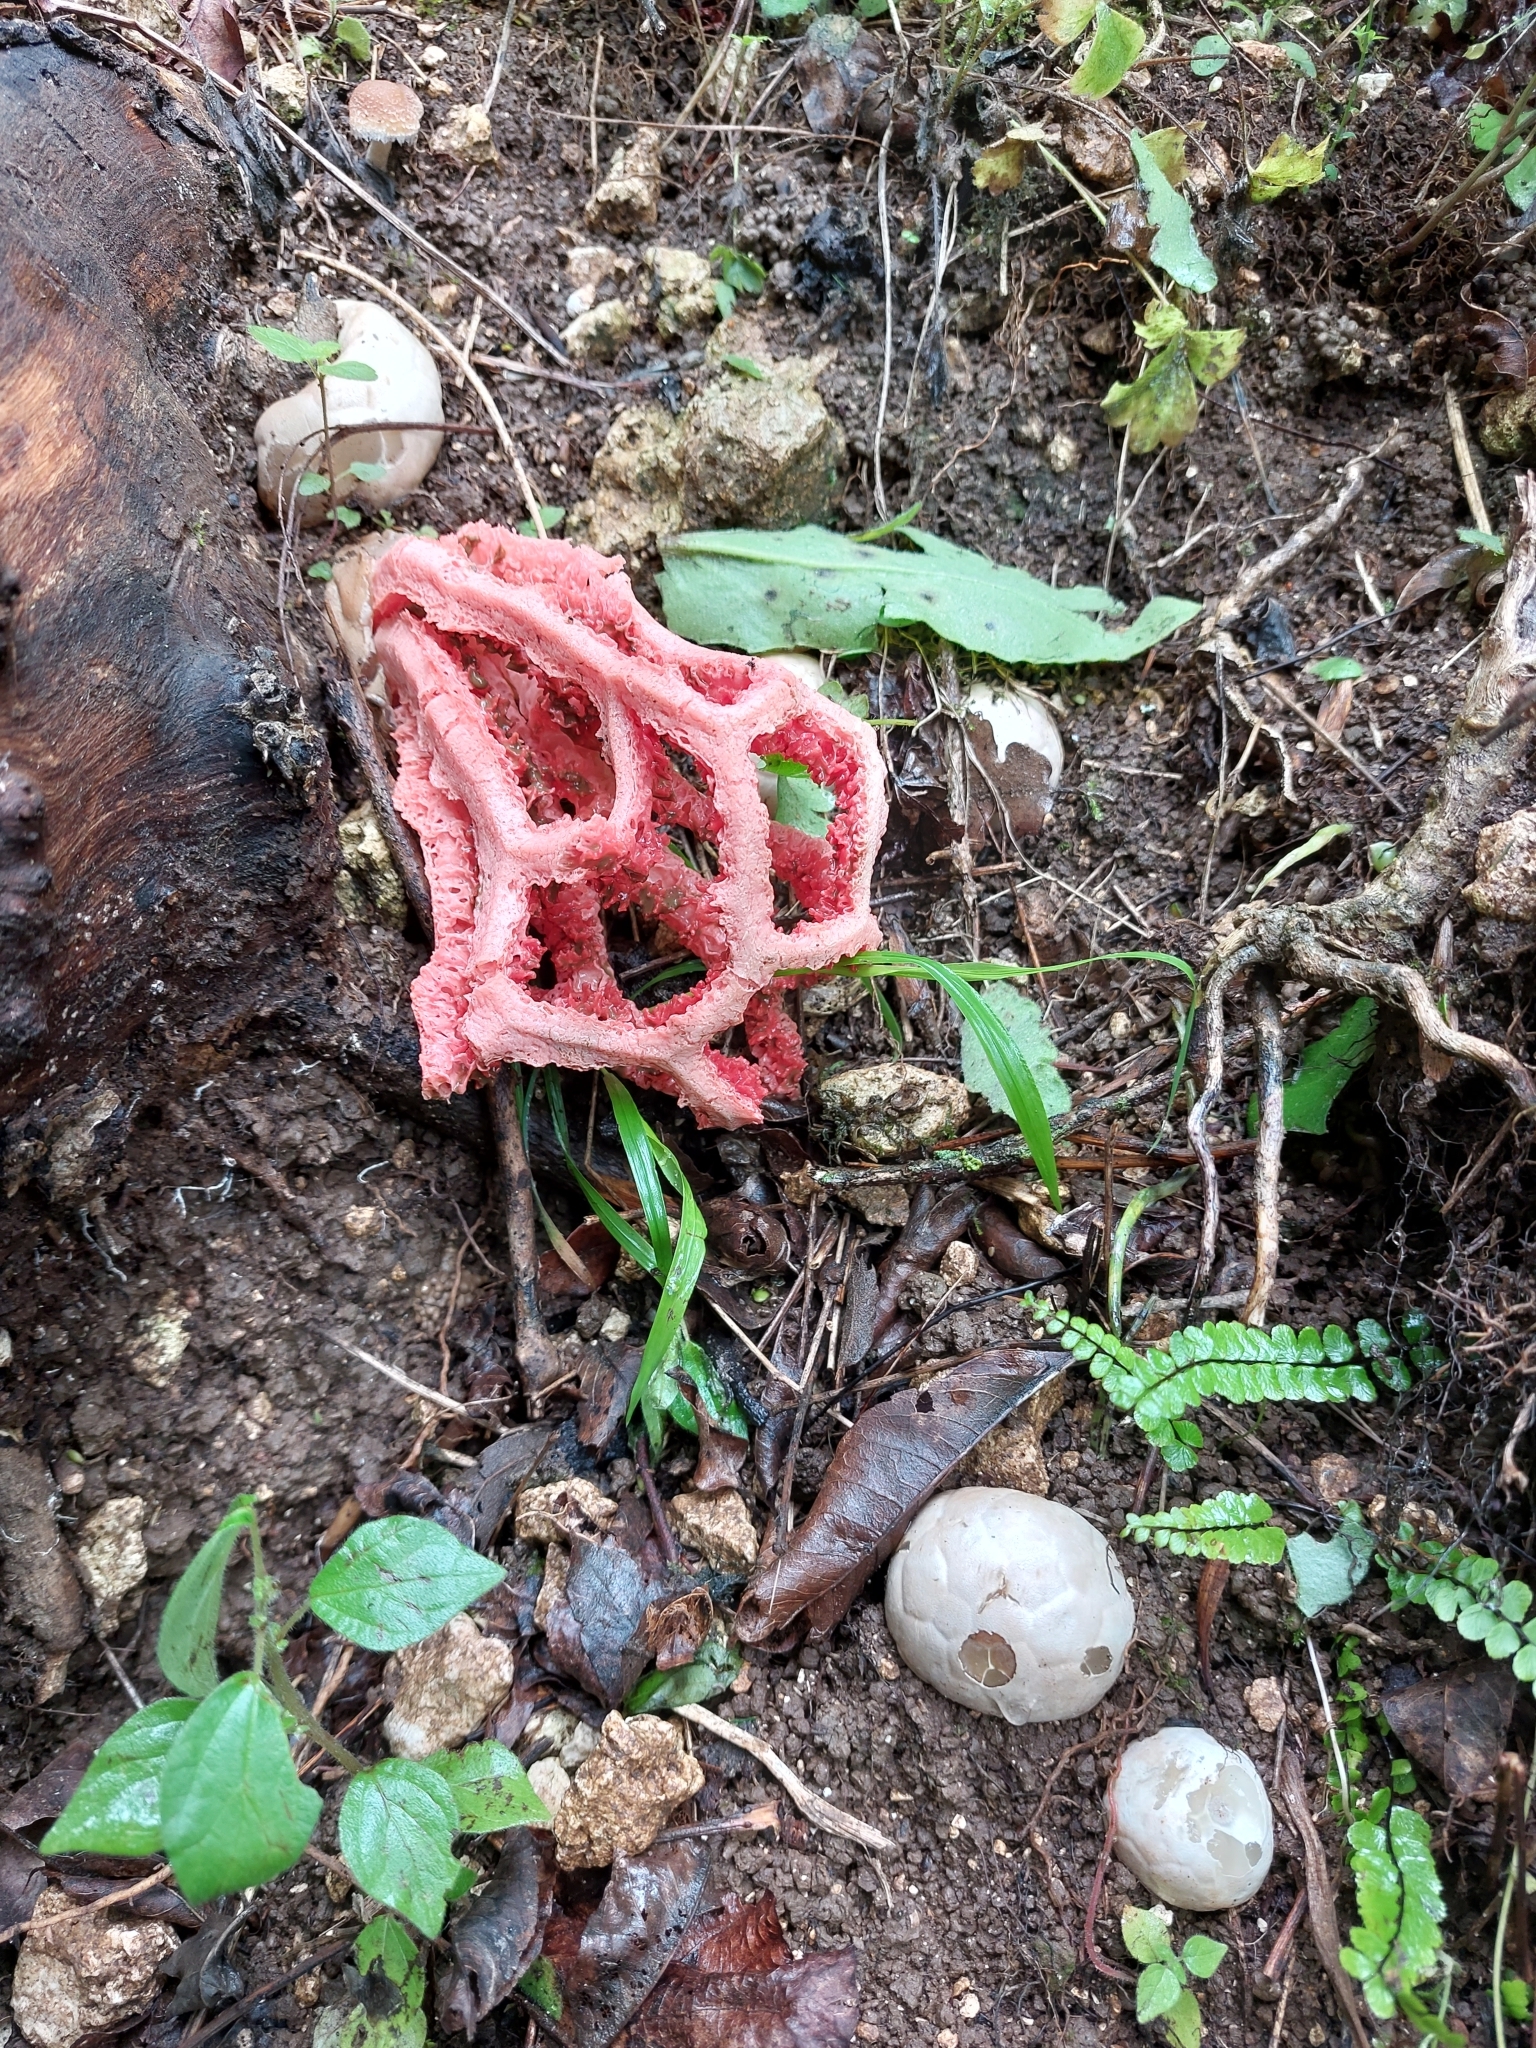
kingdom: Fungi
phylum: Basidiomycota
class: Agaricomycetes
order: Phallales
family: Phallaceae
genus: Clathrus
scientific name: Clathrus ruber
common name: Red cage
